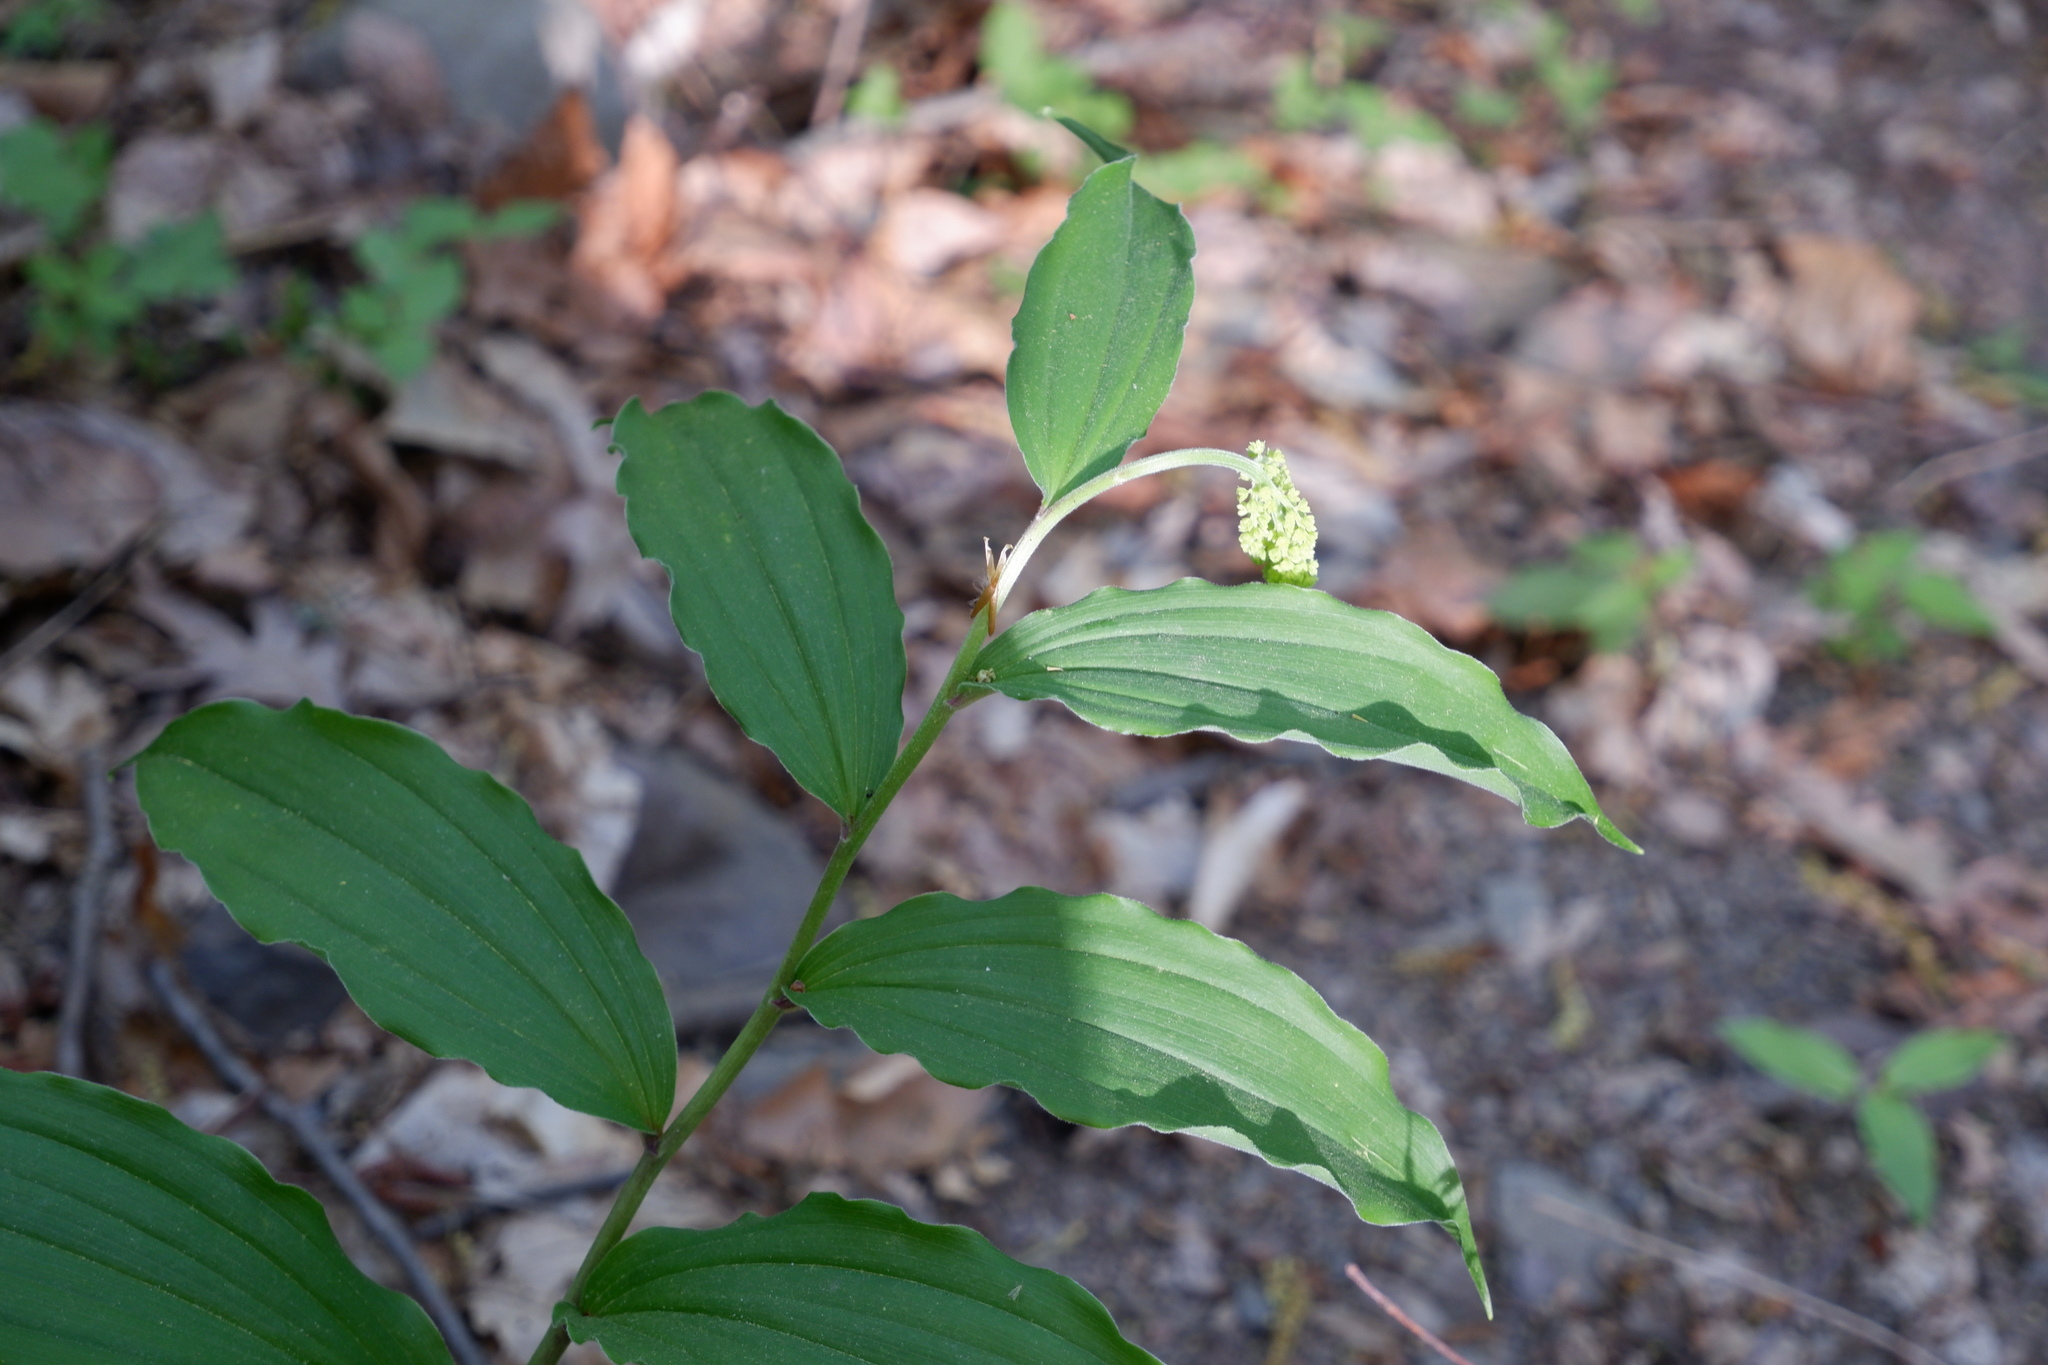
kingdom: Plantae
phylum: Tracheophyta
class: Liliopsida
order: Asparagales
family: Asparagaceae
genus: Maianthemum
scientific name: Maianthemum racemosum
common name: False spikenard
